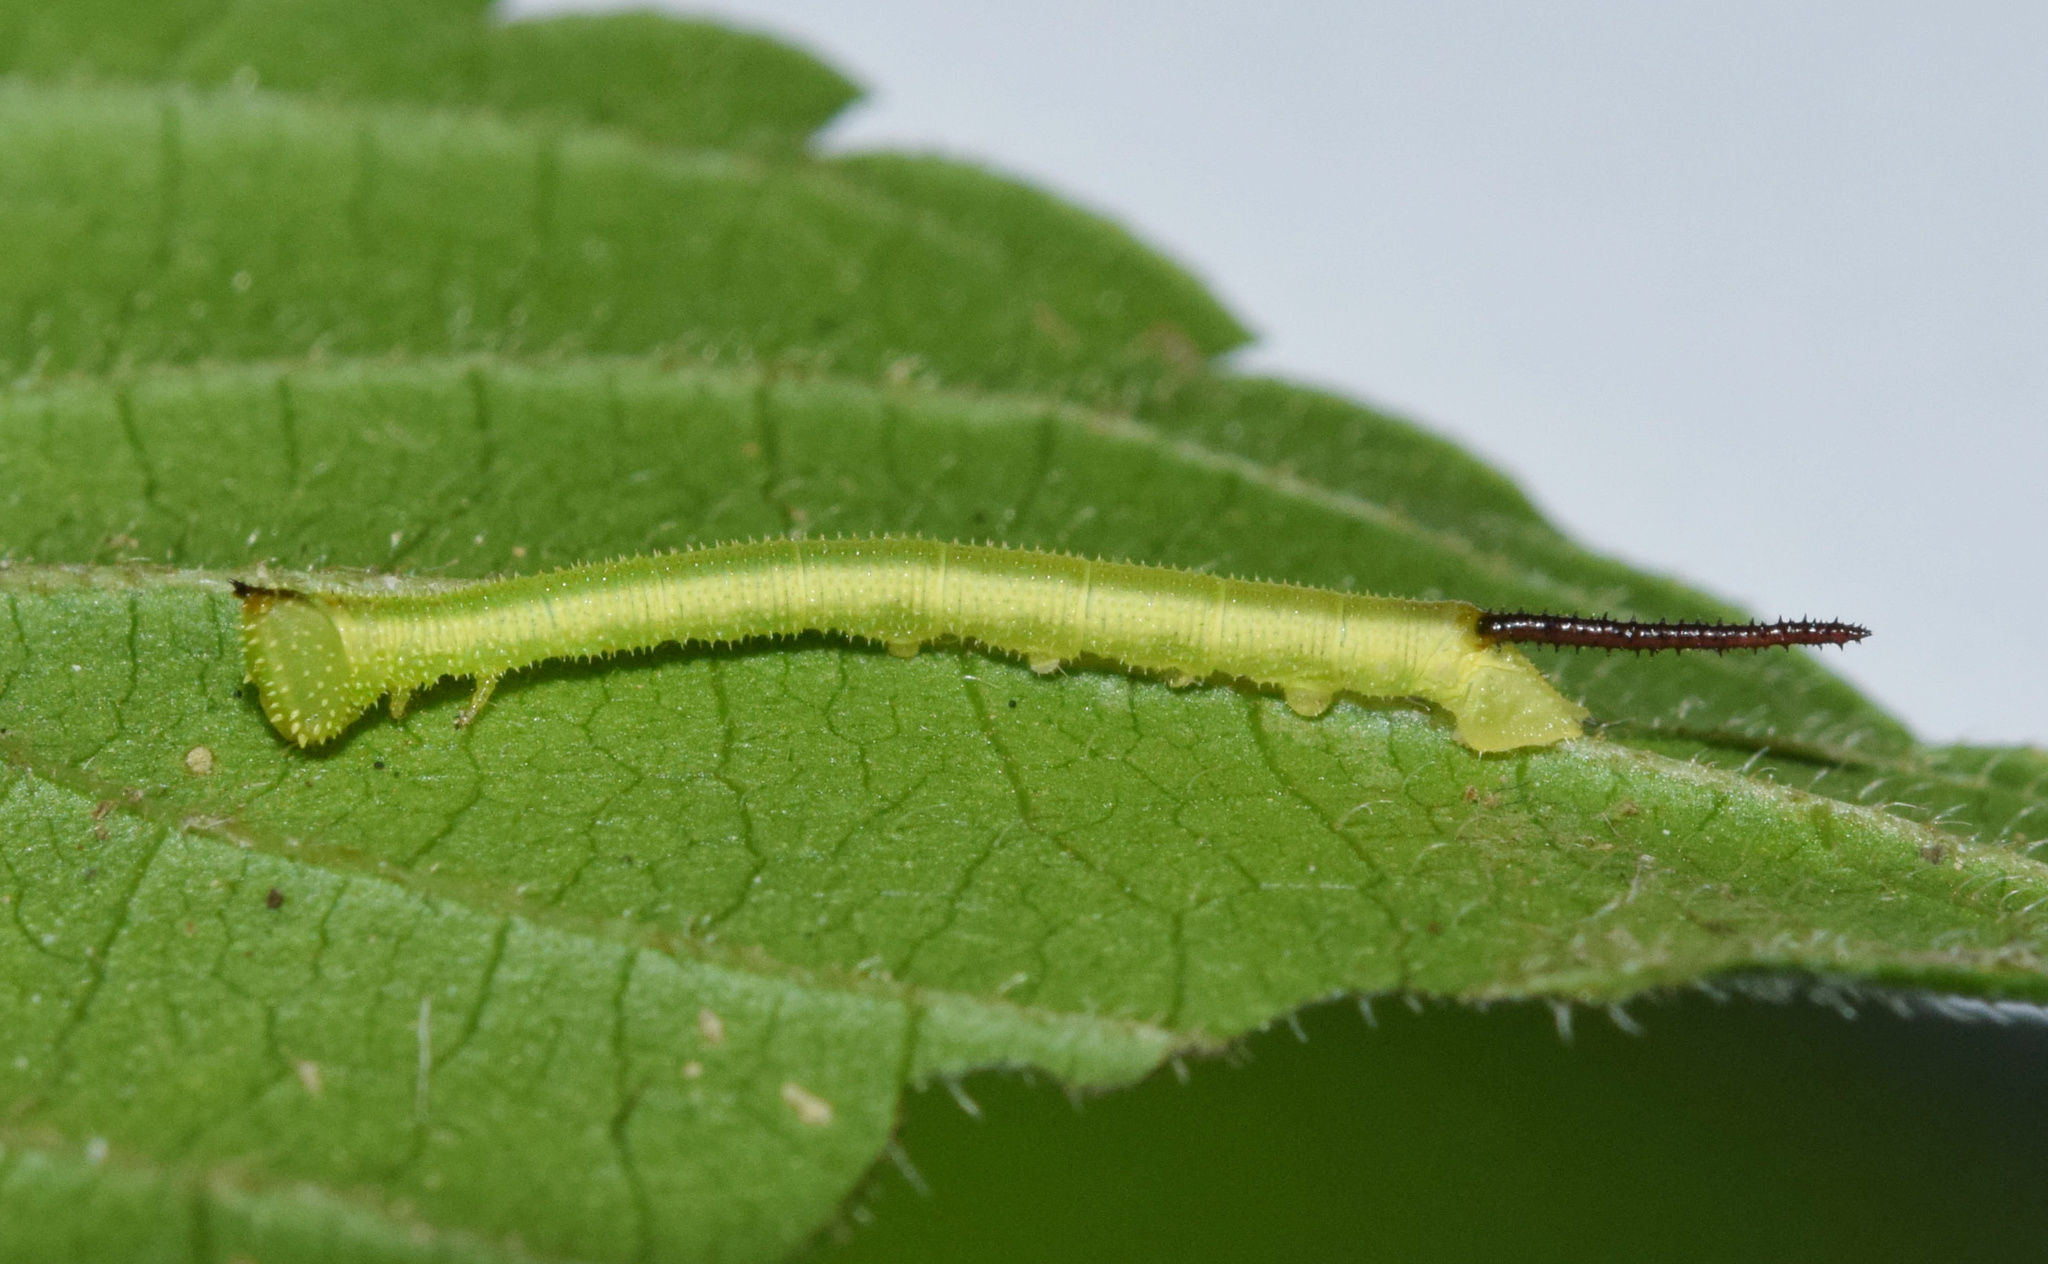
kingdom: Animalia
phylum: Arthropoda
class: Insecta
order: Lepidoptera
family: Sphingidae
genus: Pseudoclanis
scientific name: Pseudoclanis postica
